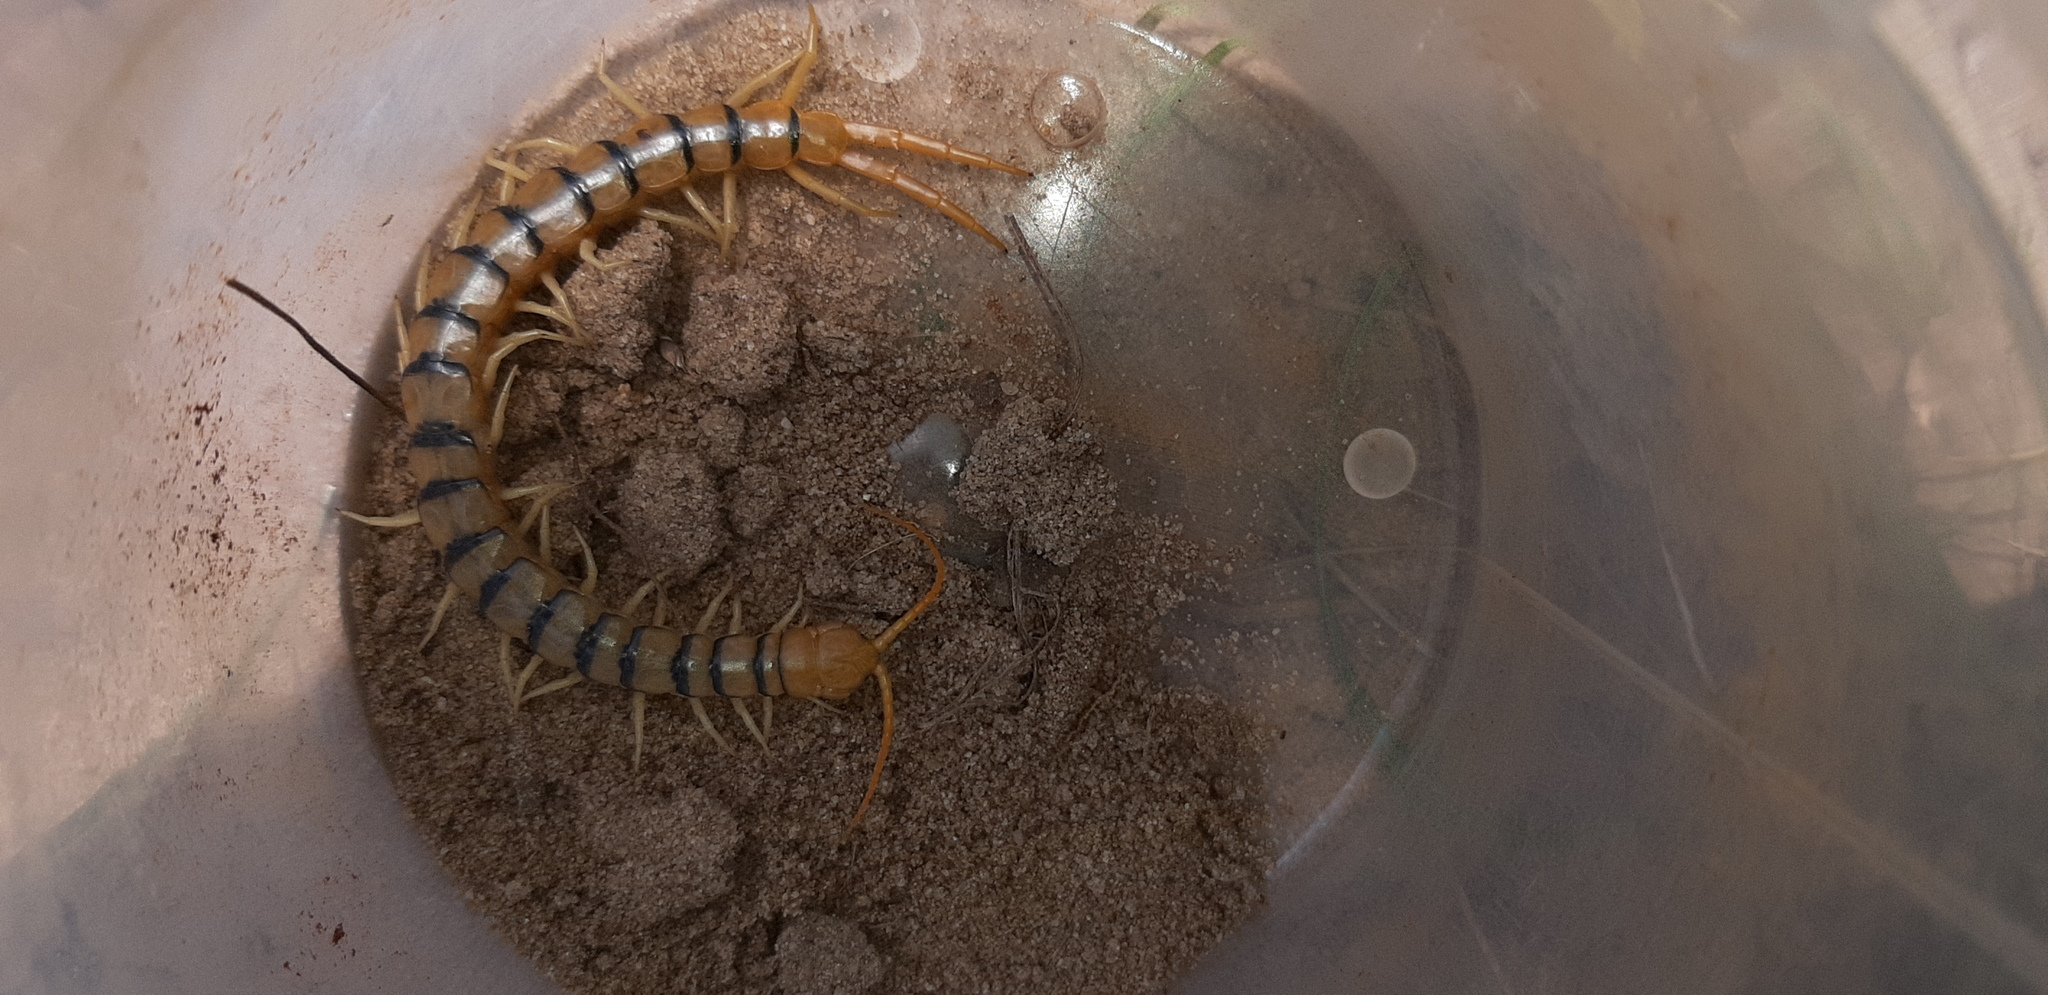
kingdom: Animalia
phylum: Arthropoda
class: Chilopoda
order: Scolopendromorpha
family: Scolopendridae
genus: Scolopendra
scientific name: Scolopendra morsitans
